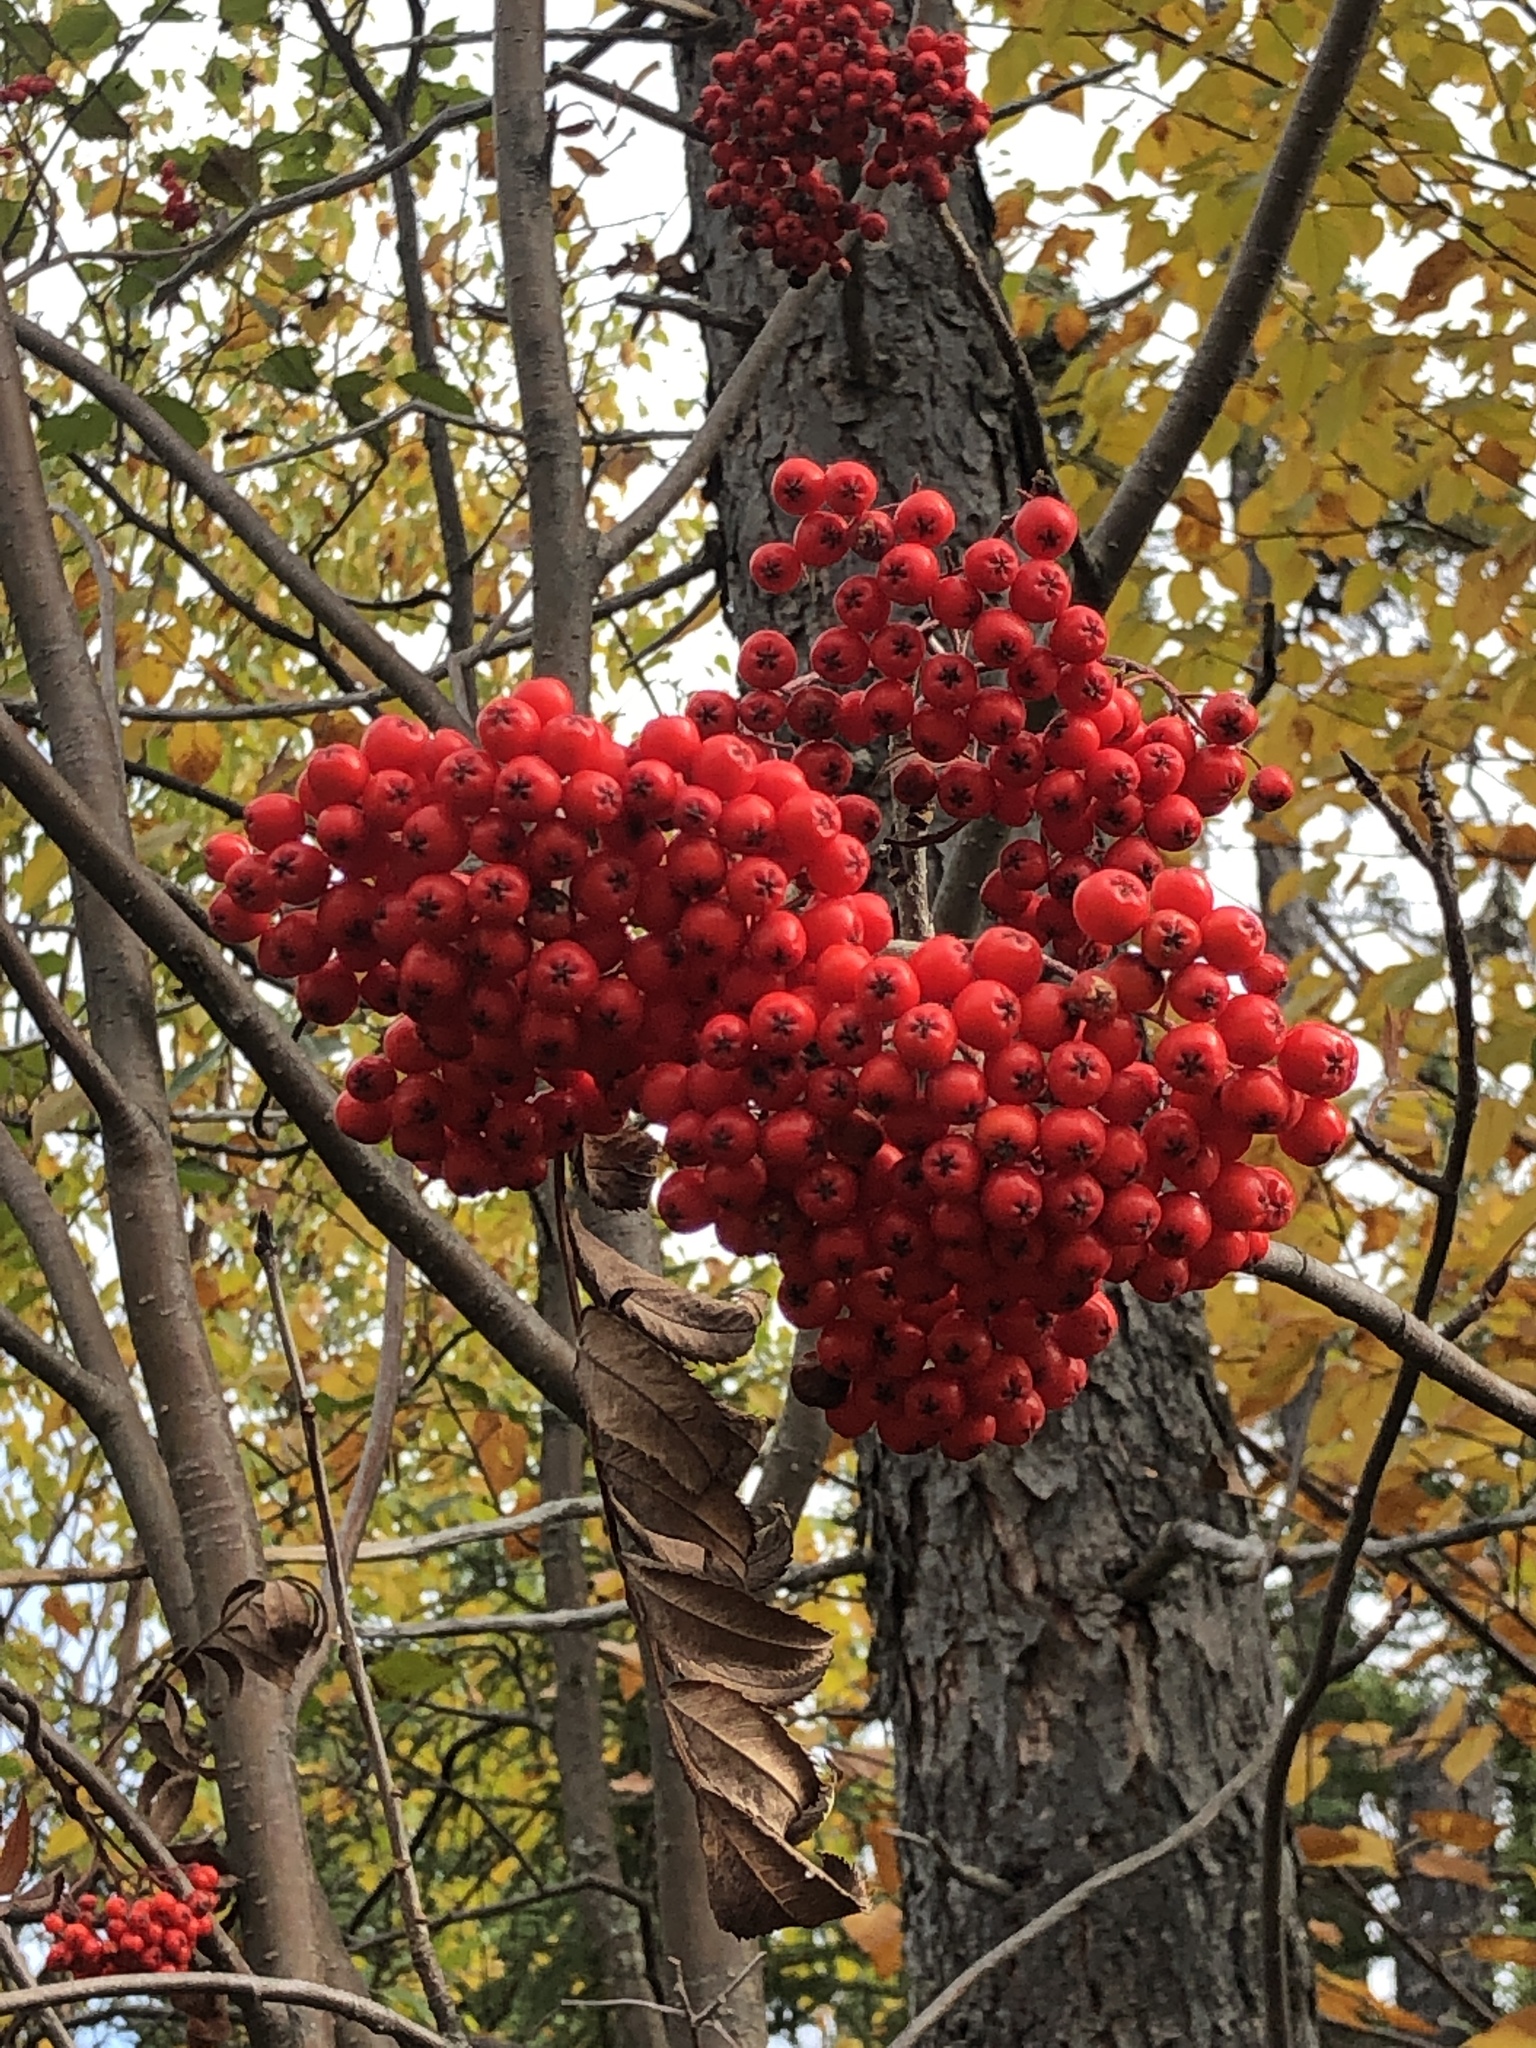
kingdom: Plantae
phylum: Tracheophyta
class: Magnoliopsida
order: Rosales
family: Rosaceae
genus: Sorbus
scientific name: Sorbus americana
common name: American mountain-ash
